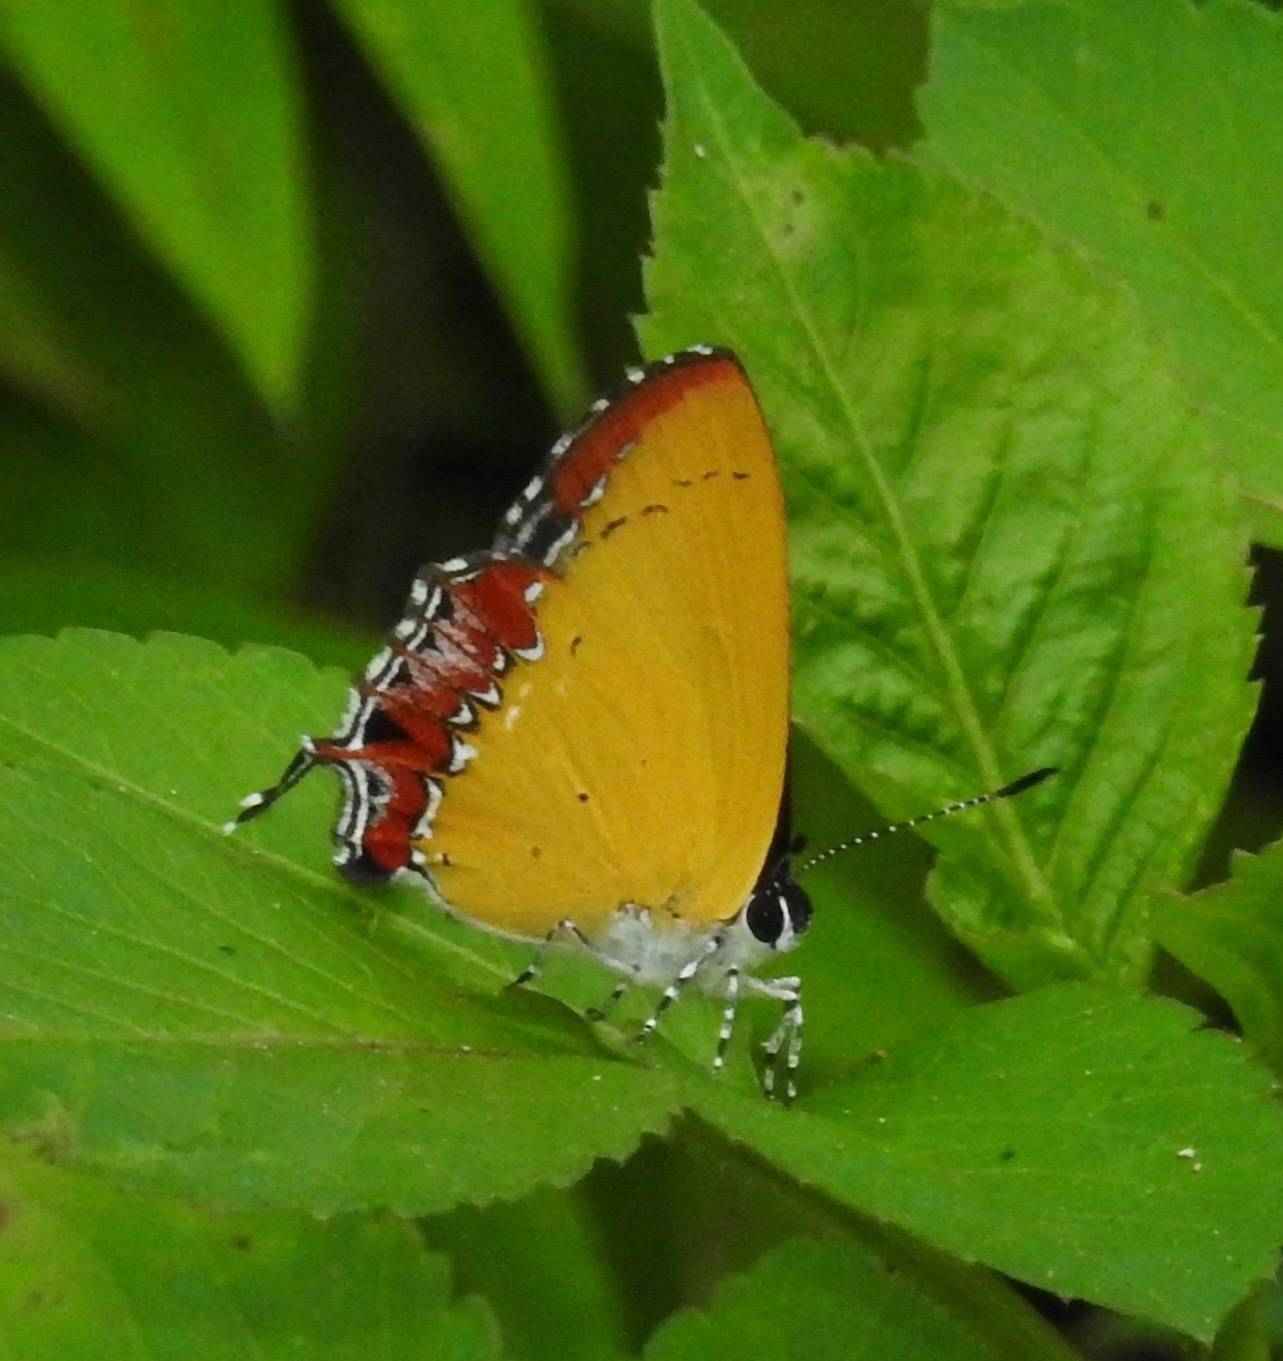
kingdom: Animalia
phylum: Arthropoda
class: Insecta
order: Lepidoptera
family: Lycaenidae
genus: Heliophorus
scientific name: Heliophorus epicles
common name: Purple sapphire
